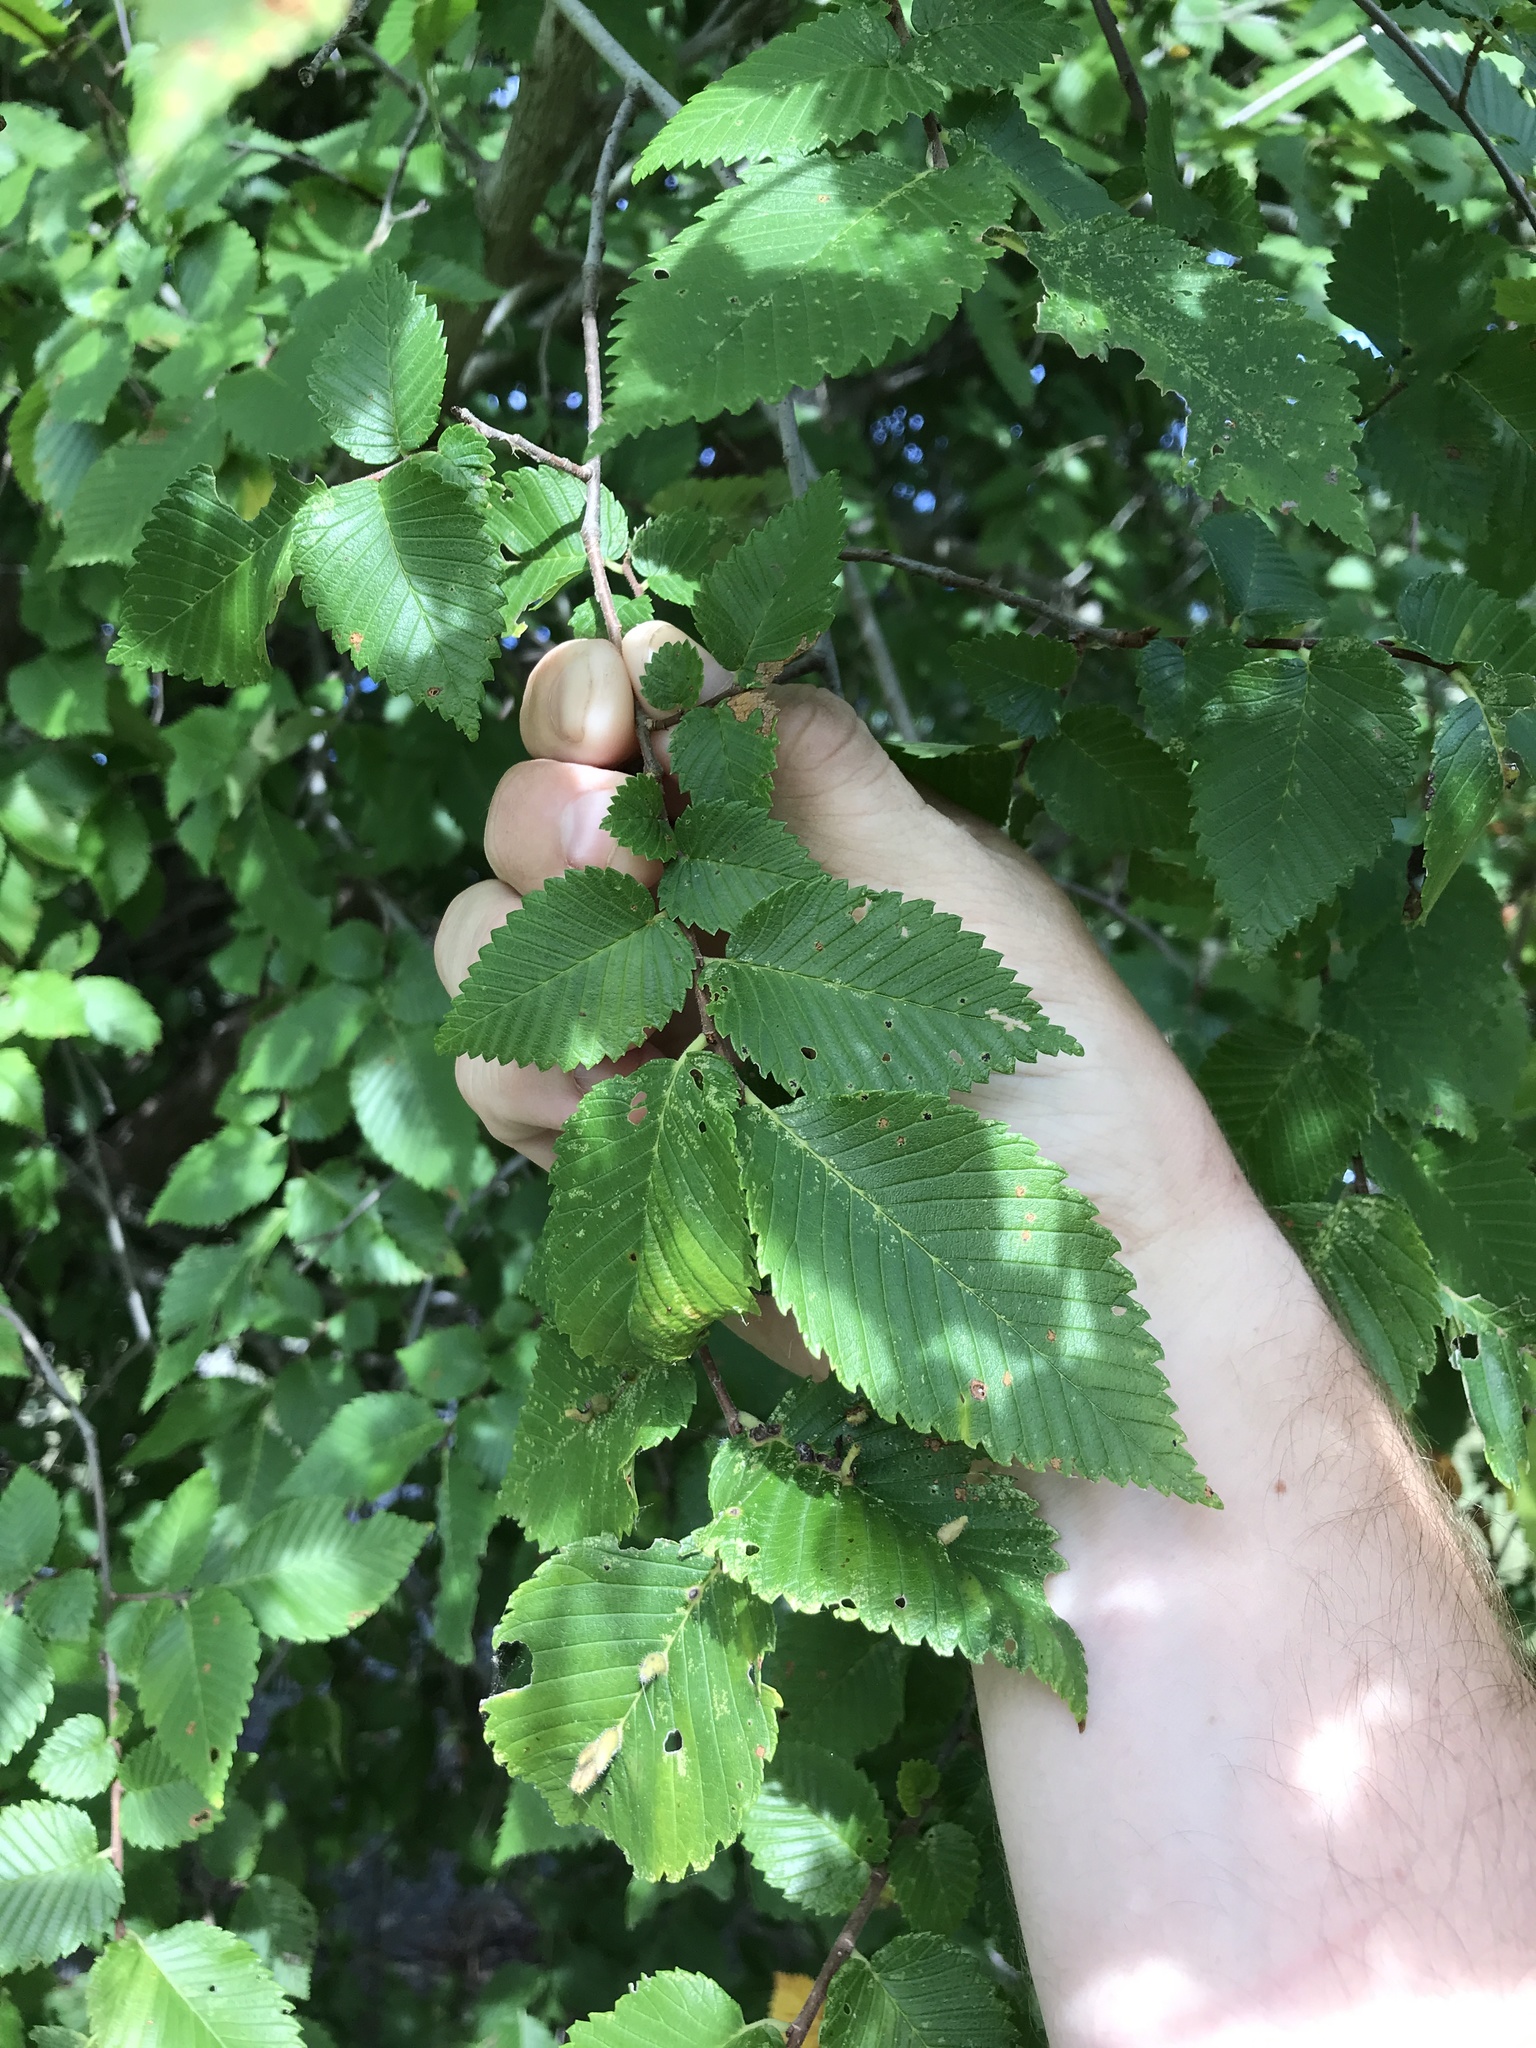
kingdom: Plantae
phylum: Tracheophyta
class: Magnoliopsida
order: Rosales
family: Ulmaceae
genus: Ulmus
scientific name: Ulmus americana
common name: American elm
